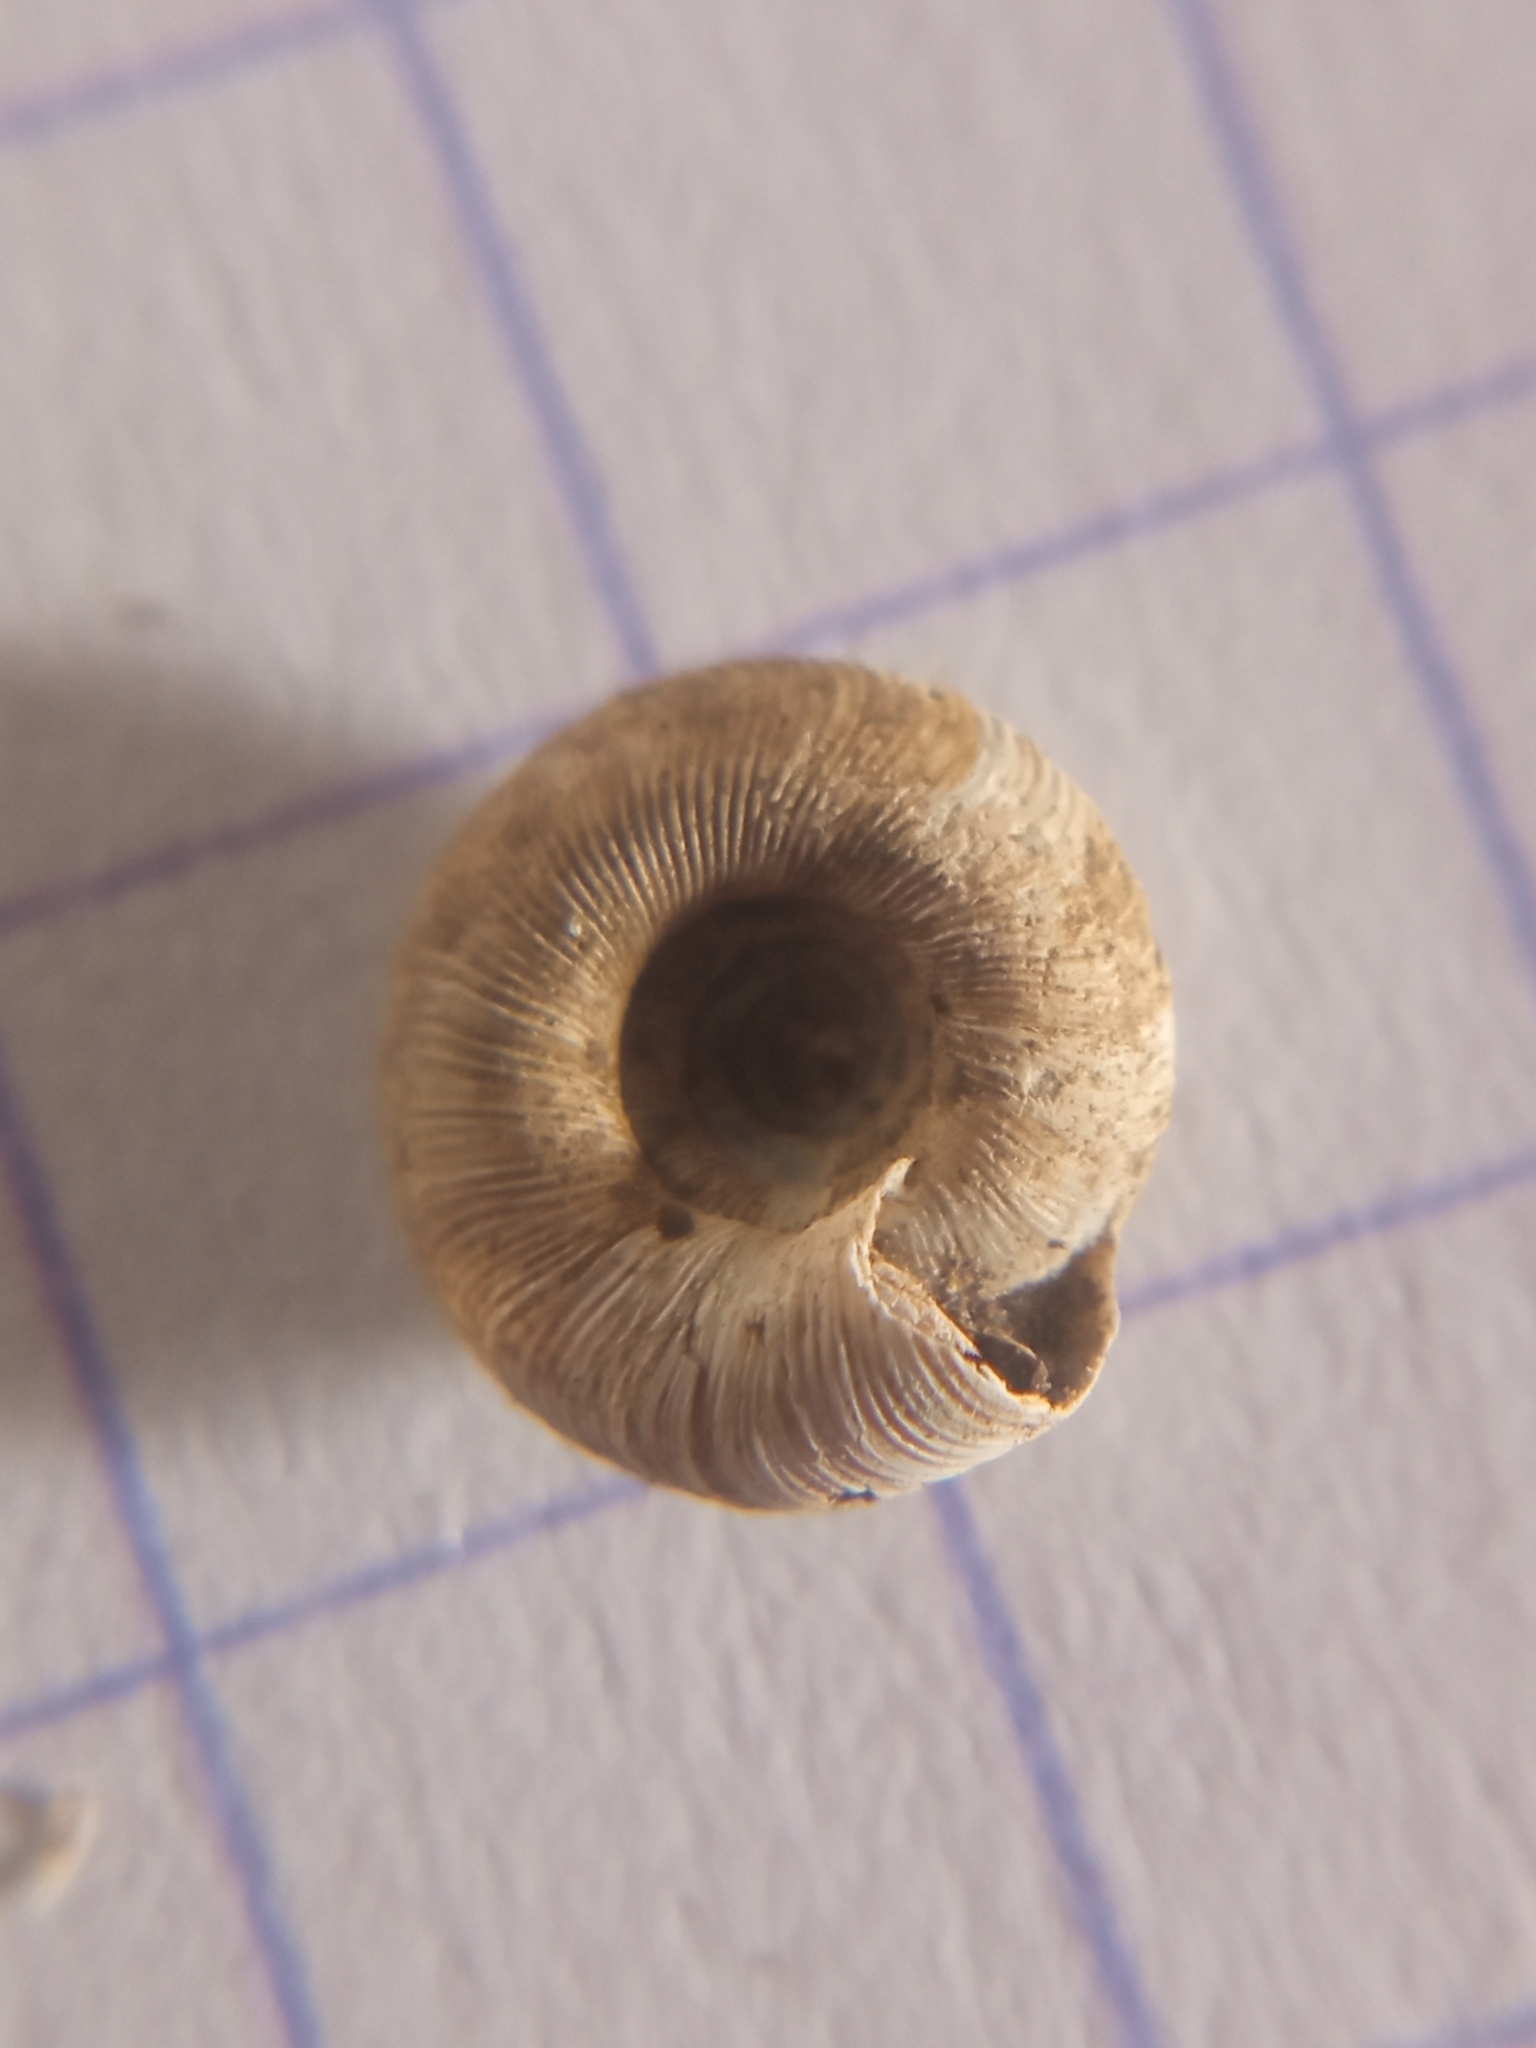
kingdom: Animalia
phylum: Mollusca
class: Gastropoda
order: Stylommatophora
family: Discidae
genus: Discus
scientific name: Discus rotundatus
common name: Rounded snail
